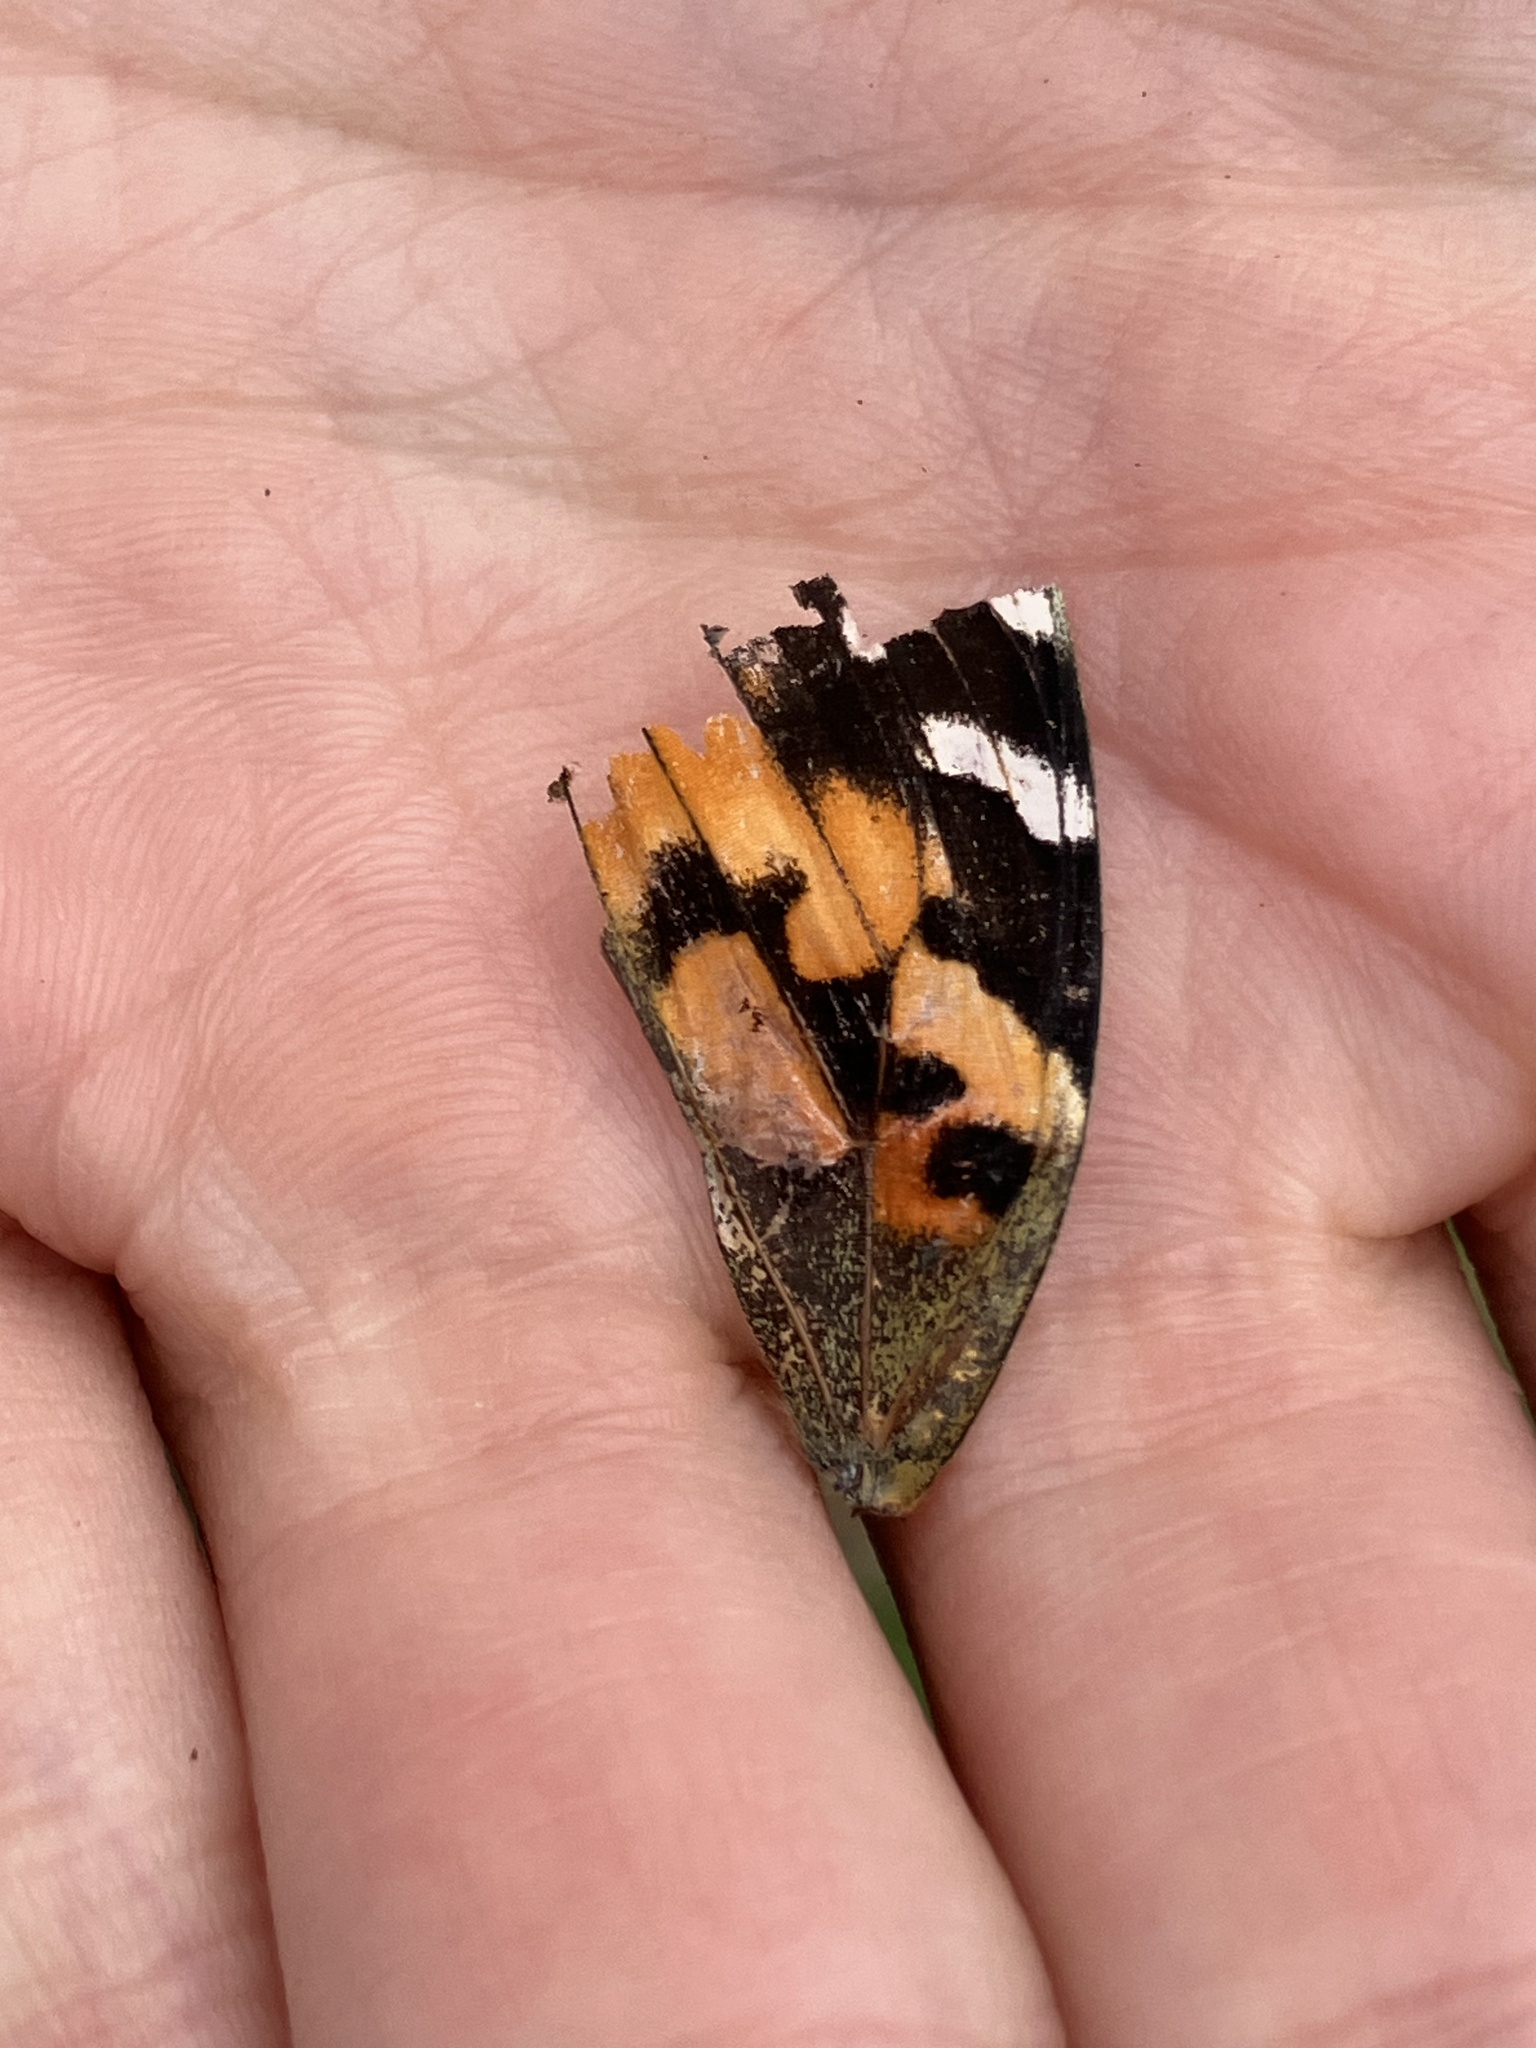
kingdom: Animalia
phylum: Arthropoda
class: Insecta
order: Lepidoptera
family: Nymphalidae
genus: Vanessa
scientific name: Vanessa cardui
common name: Painted lady
